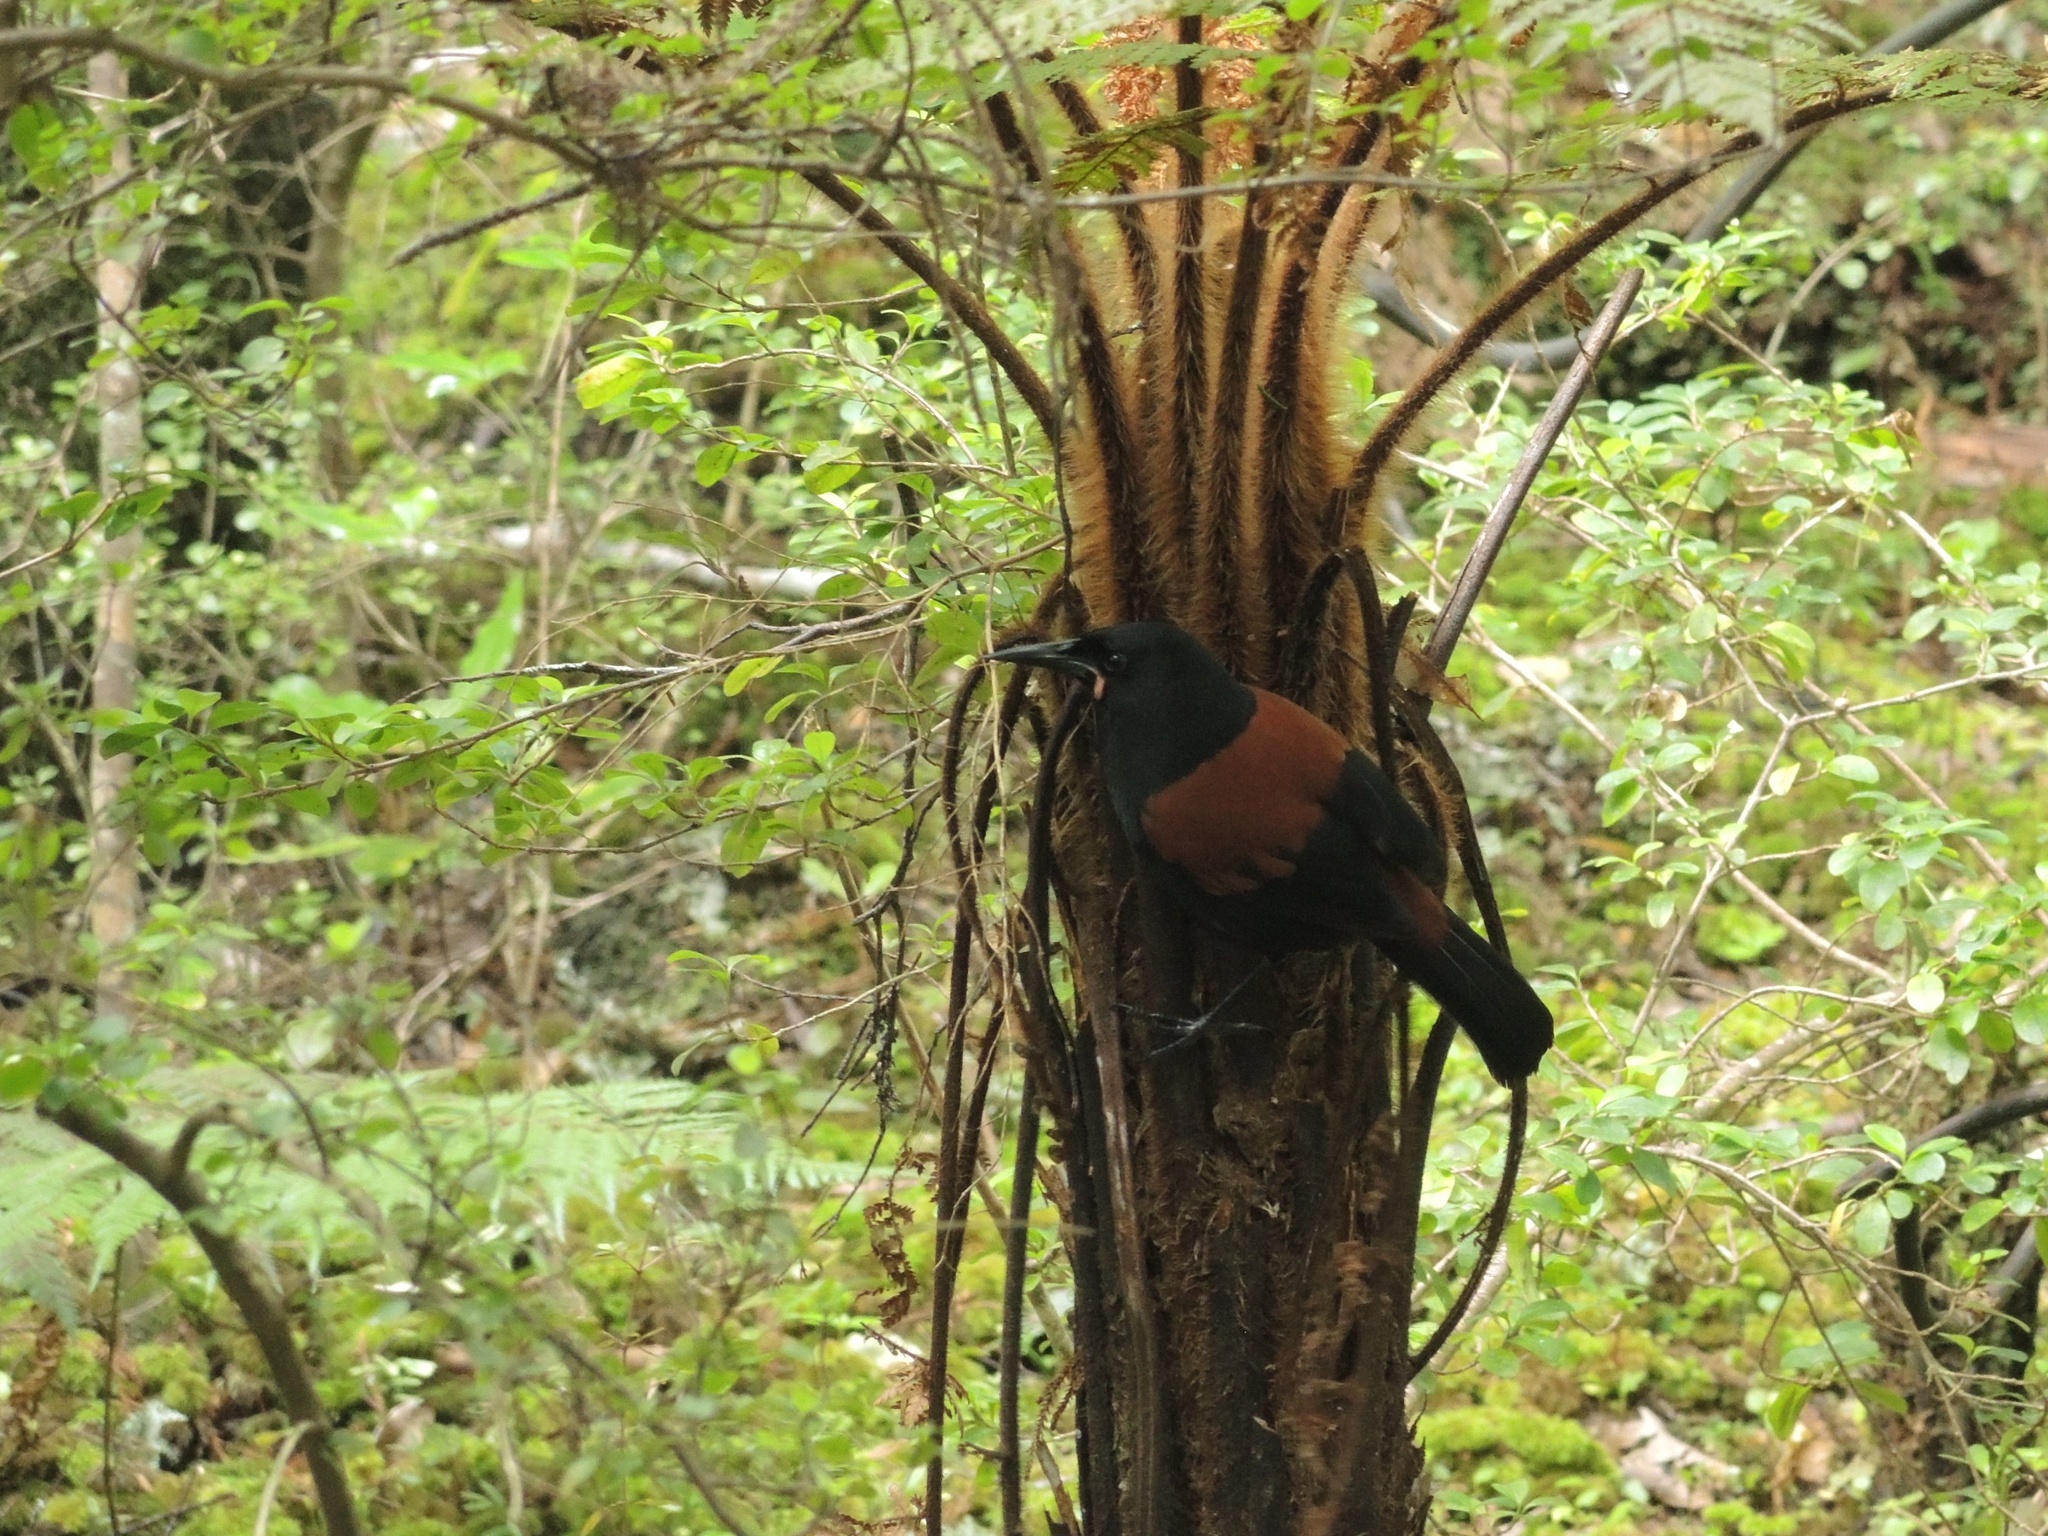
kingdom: Animalia
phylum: Chordata
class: Aves
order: Passeriformes
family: Callaeatidae
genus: Philesturnus
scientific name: Philesturnus carunculatus
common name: South island saddleback
